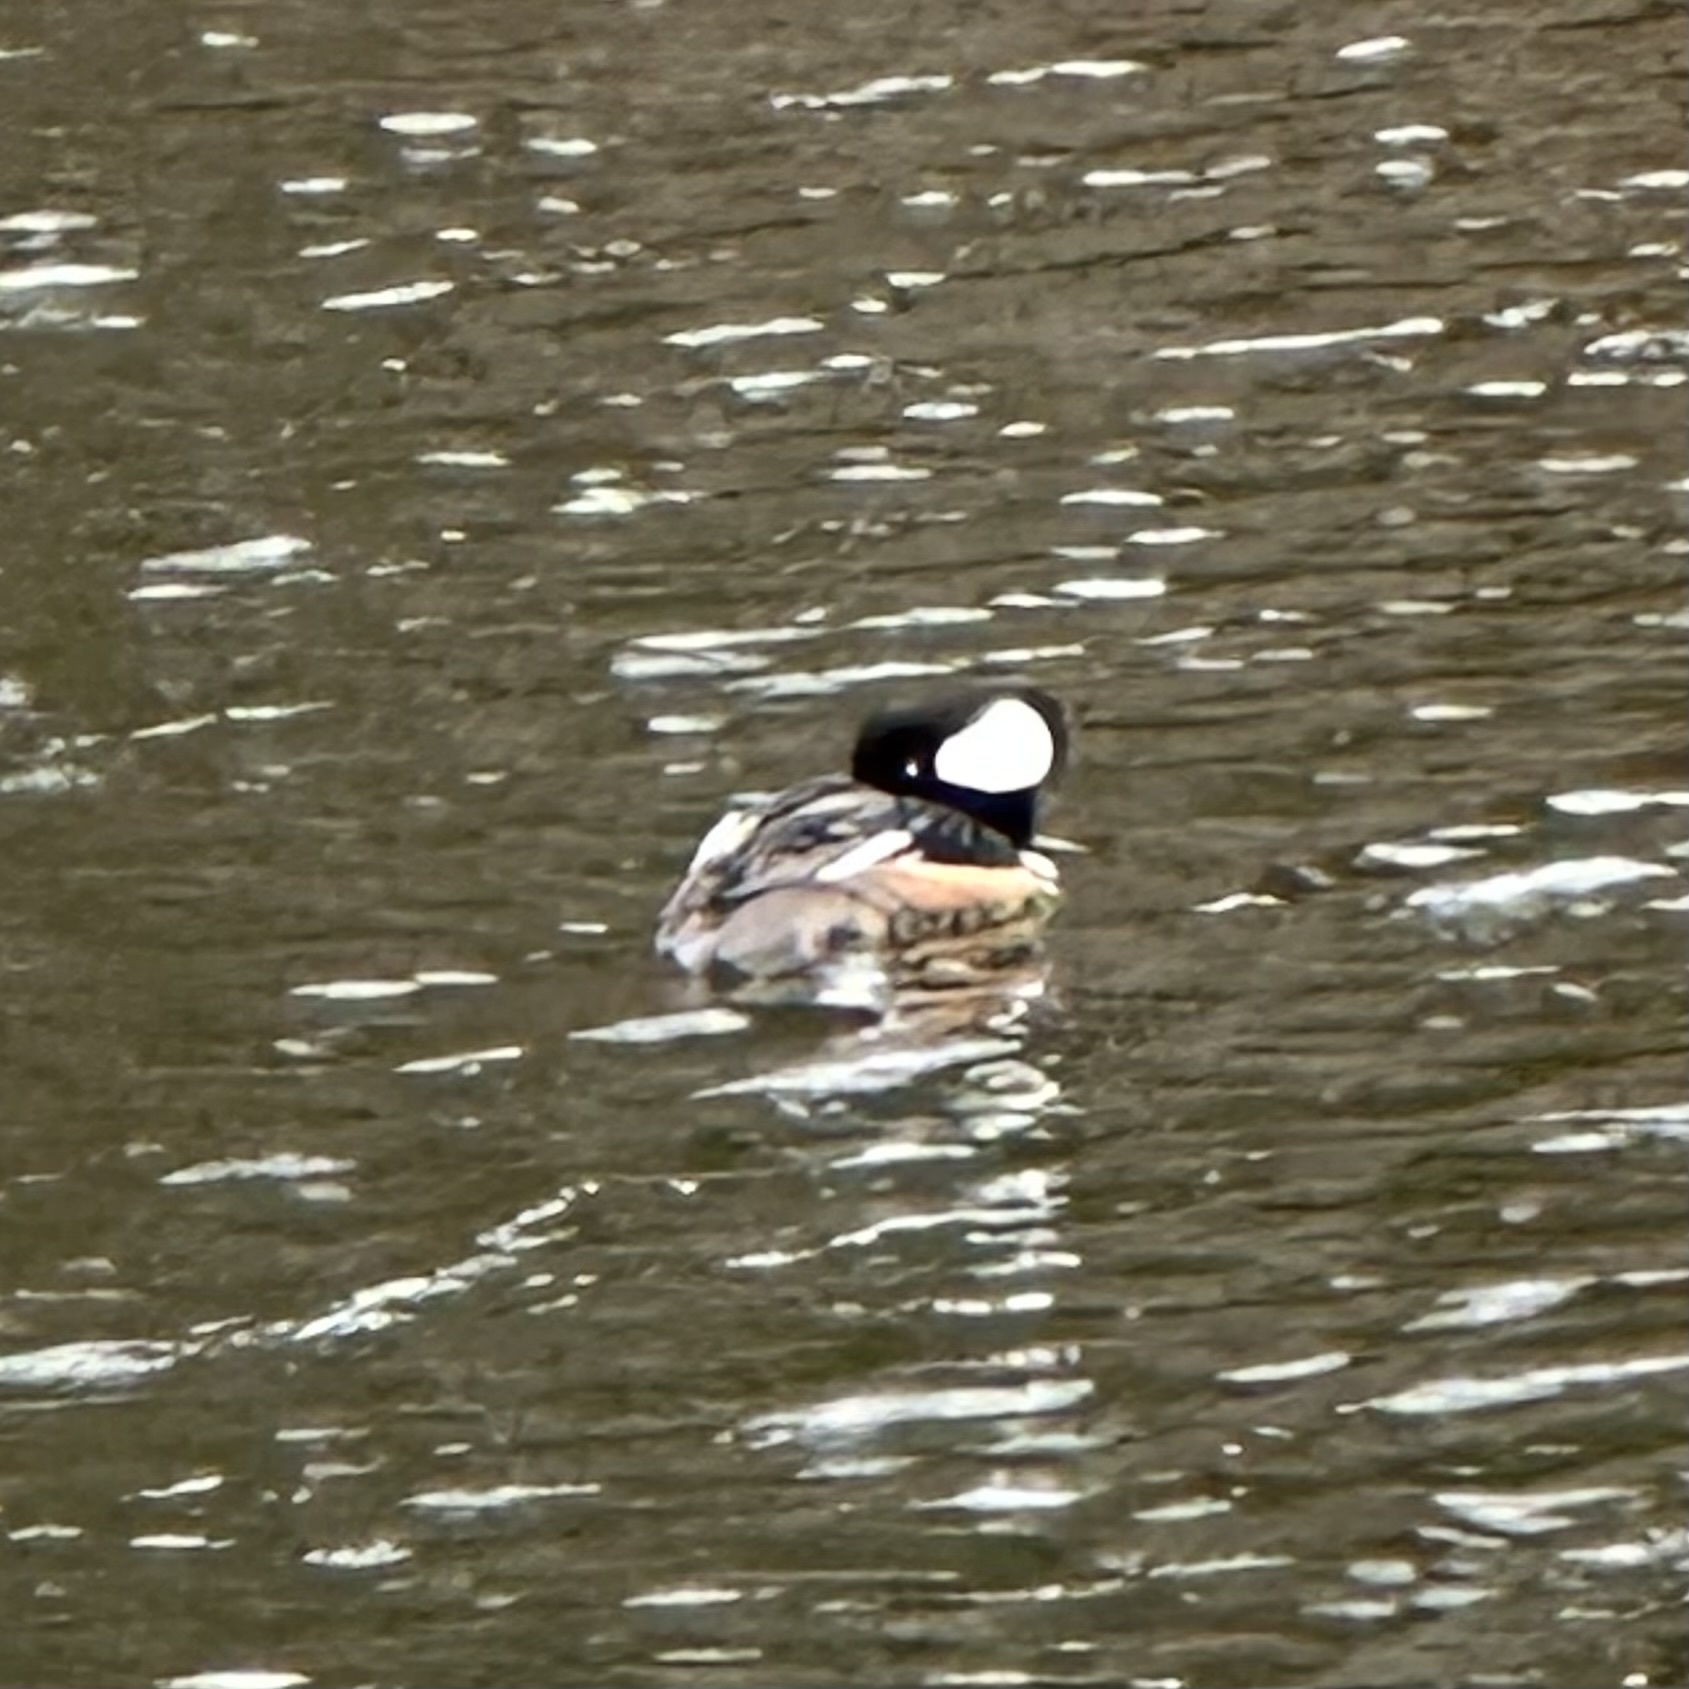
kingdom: Animalia
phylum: Chordata
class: Aves
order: Anseriformes
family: Anatidae
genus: Lophodytes
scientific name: Lophodytes cucullatus
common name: Hooded merganser
